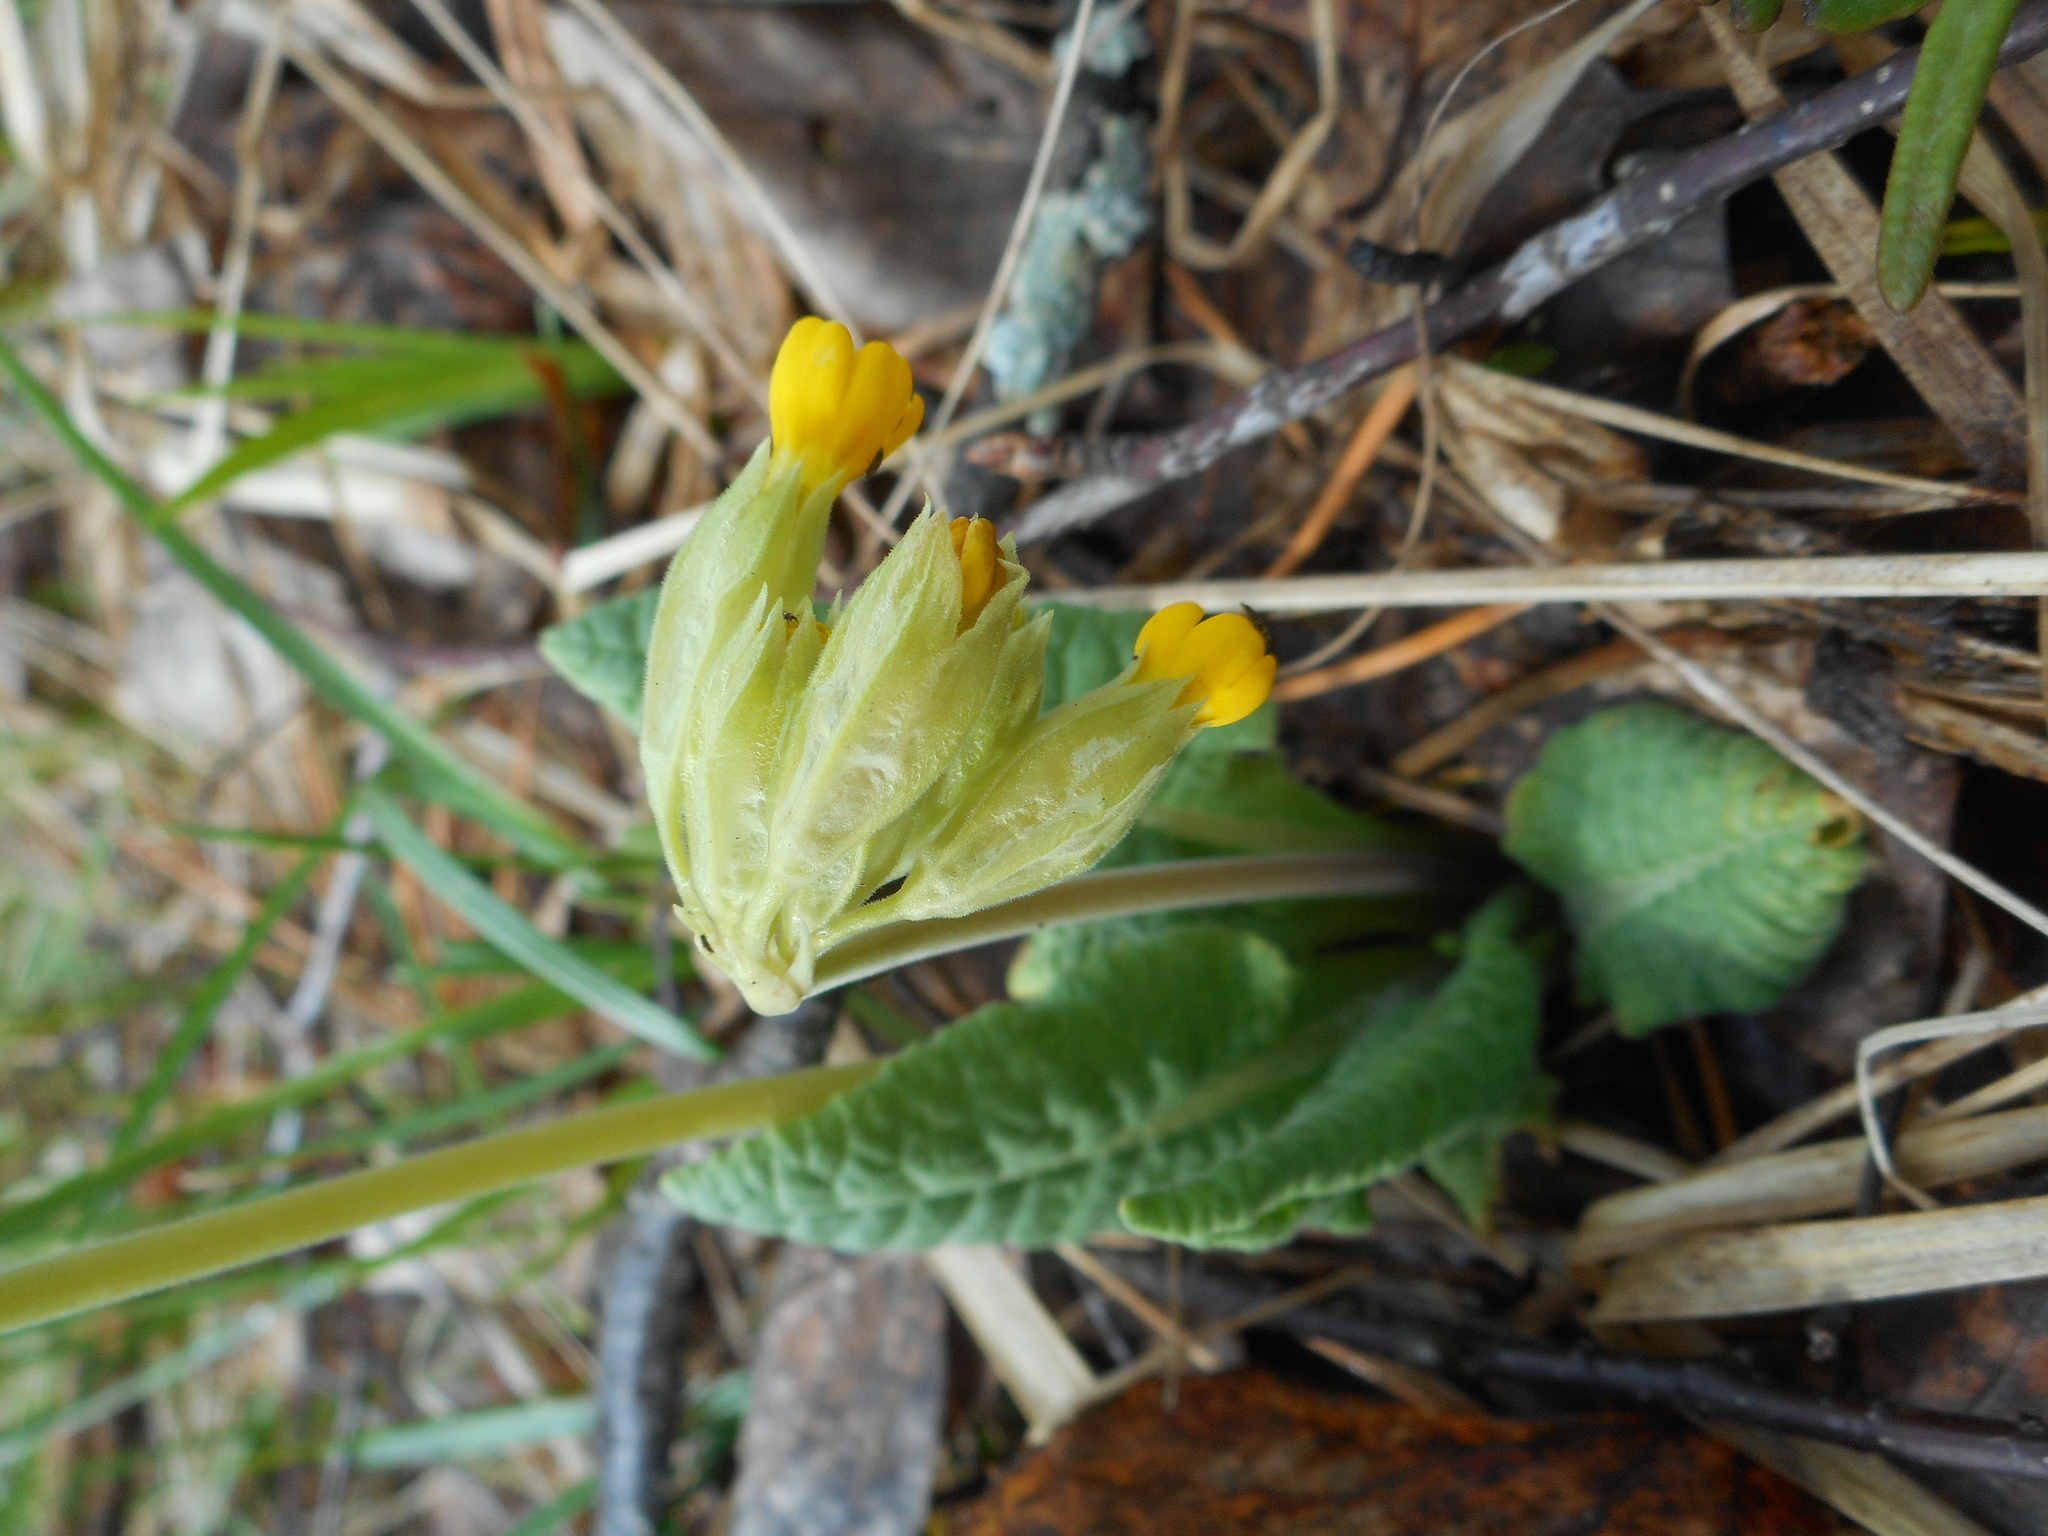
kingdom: Plantae
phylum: Tracheophyta
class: Magnoliopsida
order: Ericales
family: Primulaceae
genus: Primula
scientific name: Primula veris
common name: Cowslip
